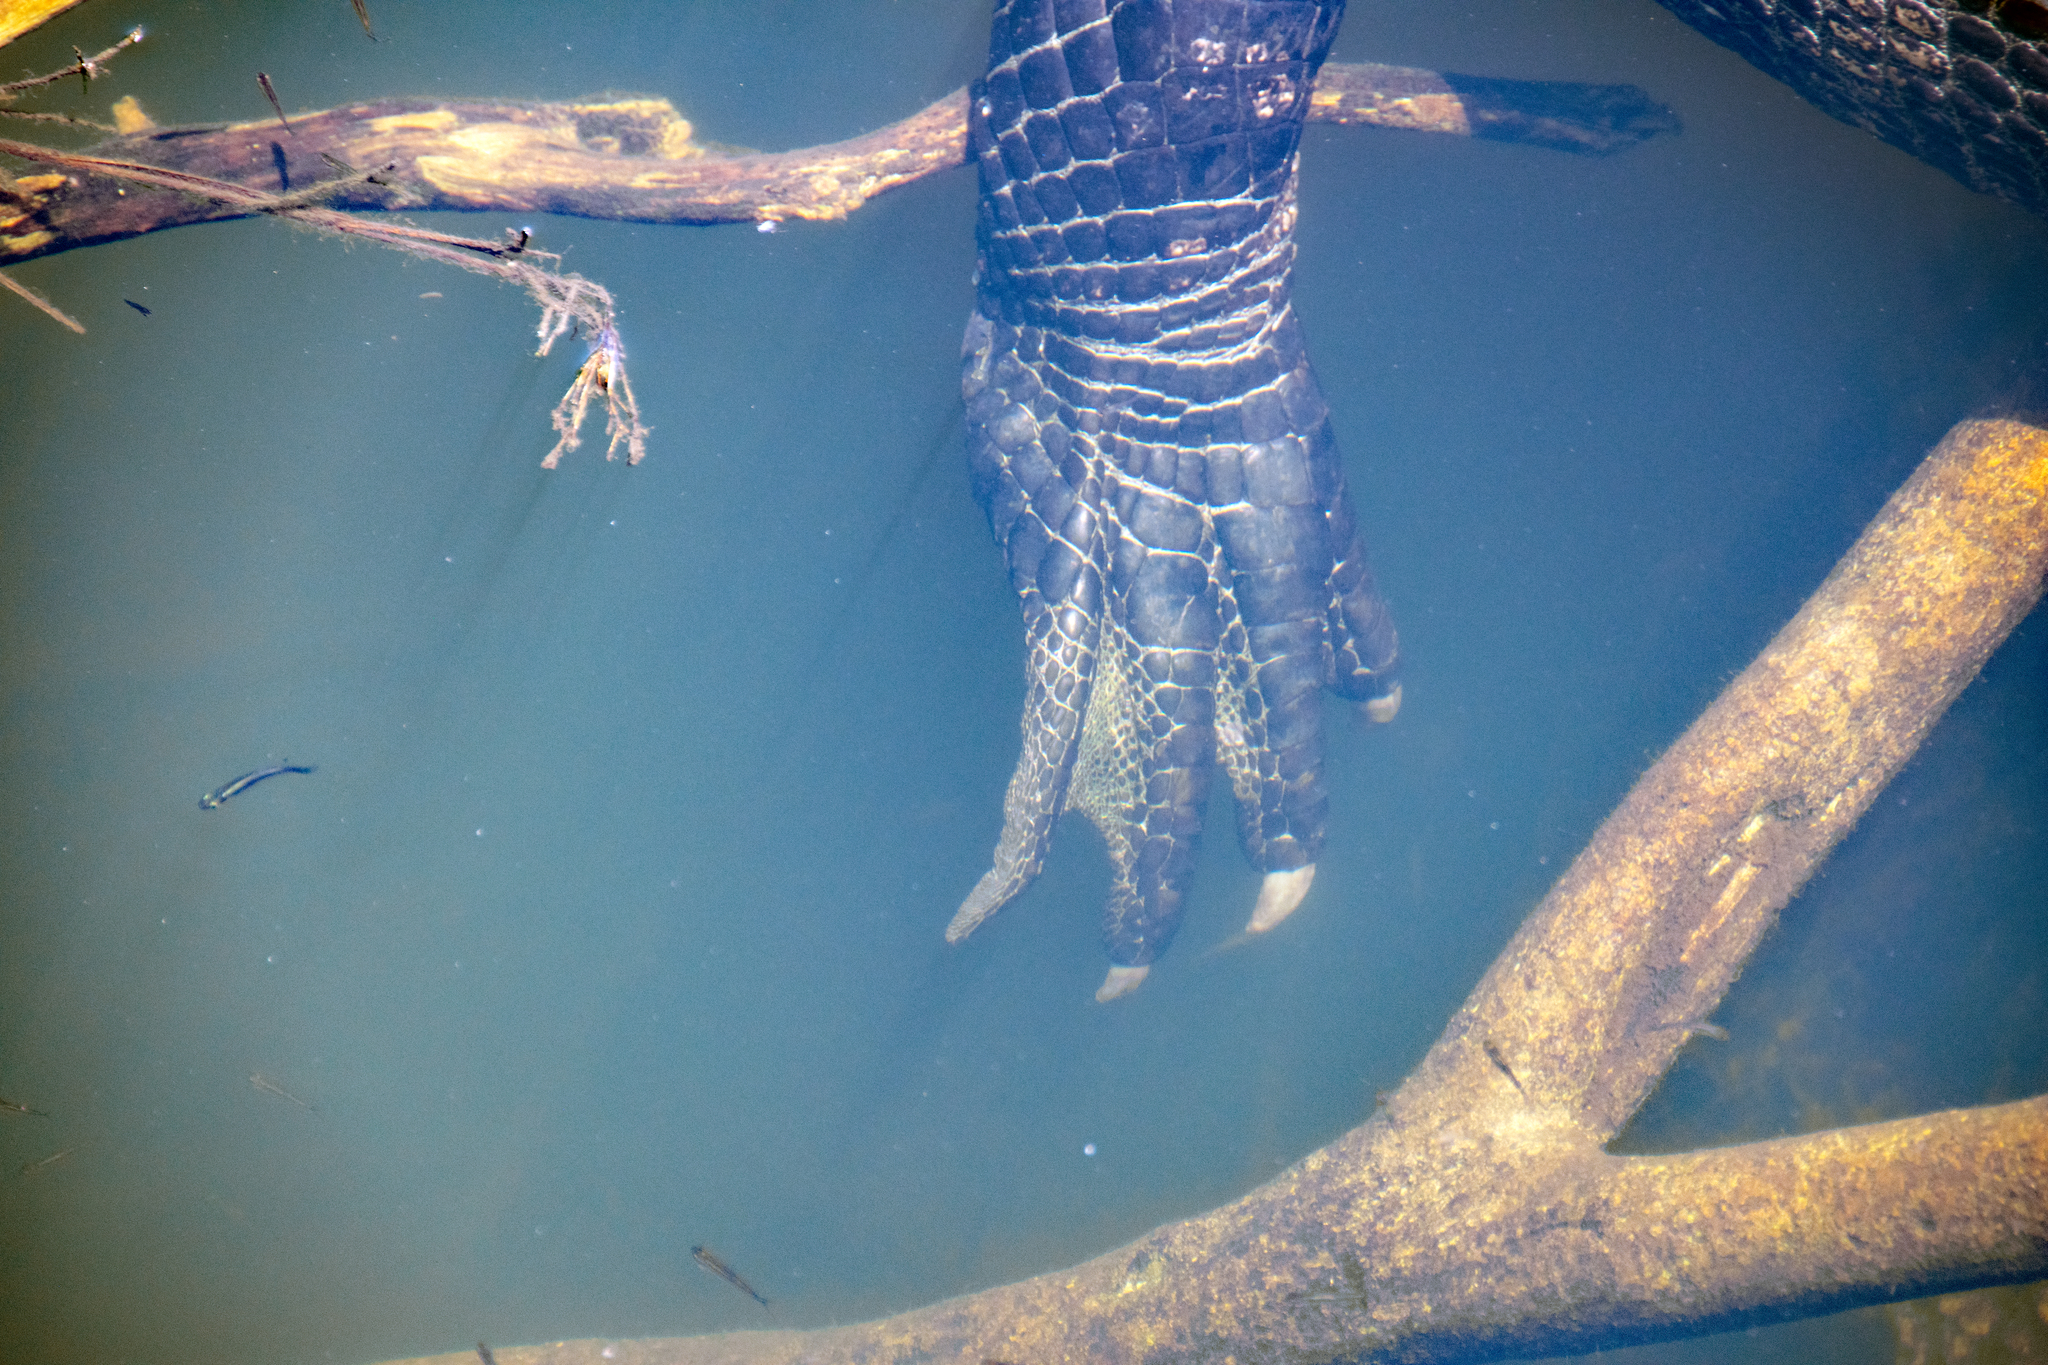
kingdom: Animalia
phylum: Chordata
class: Crocodylia
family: Alligatoridae
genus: Alligator
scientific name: Alligator mississippiensis
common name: American alligator
